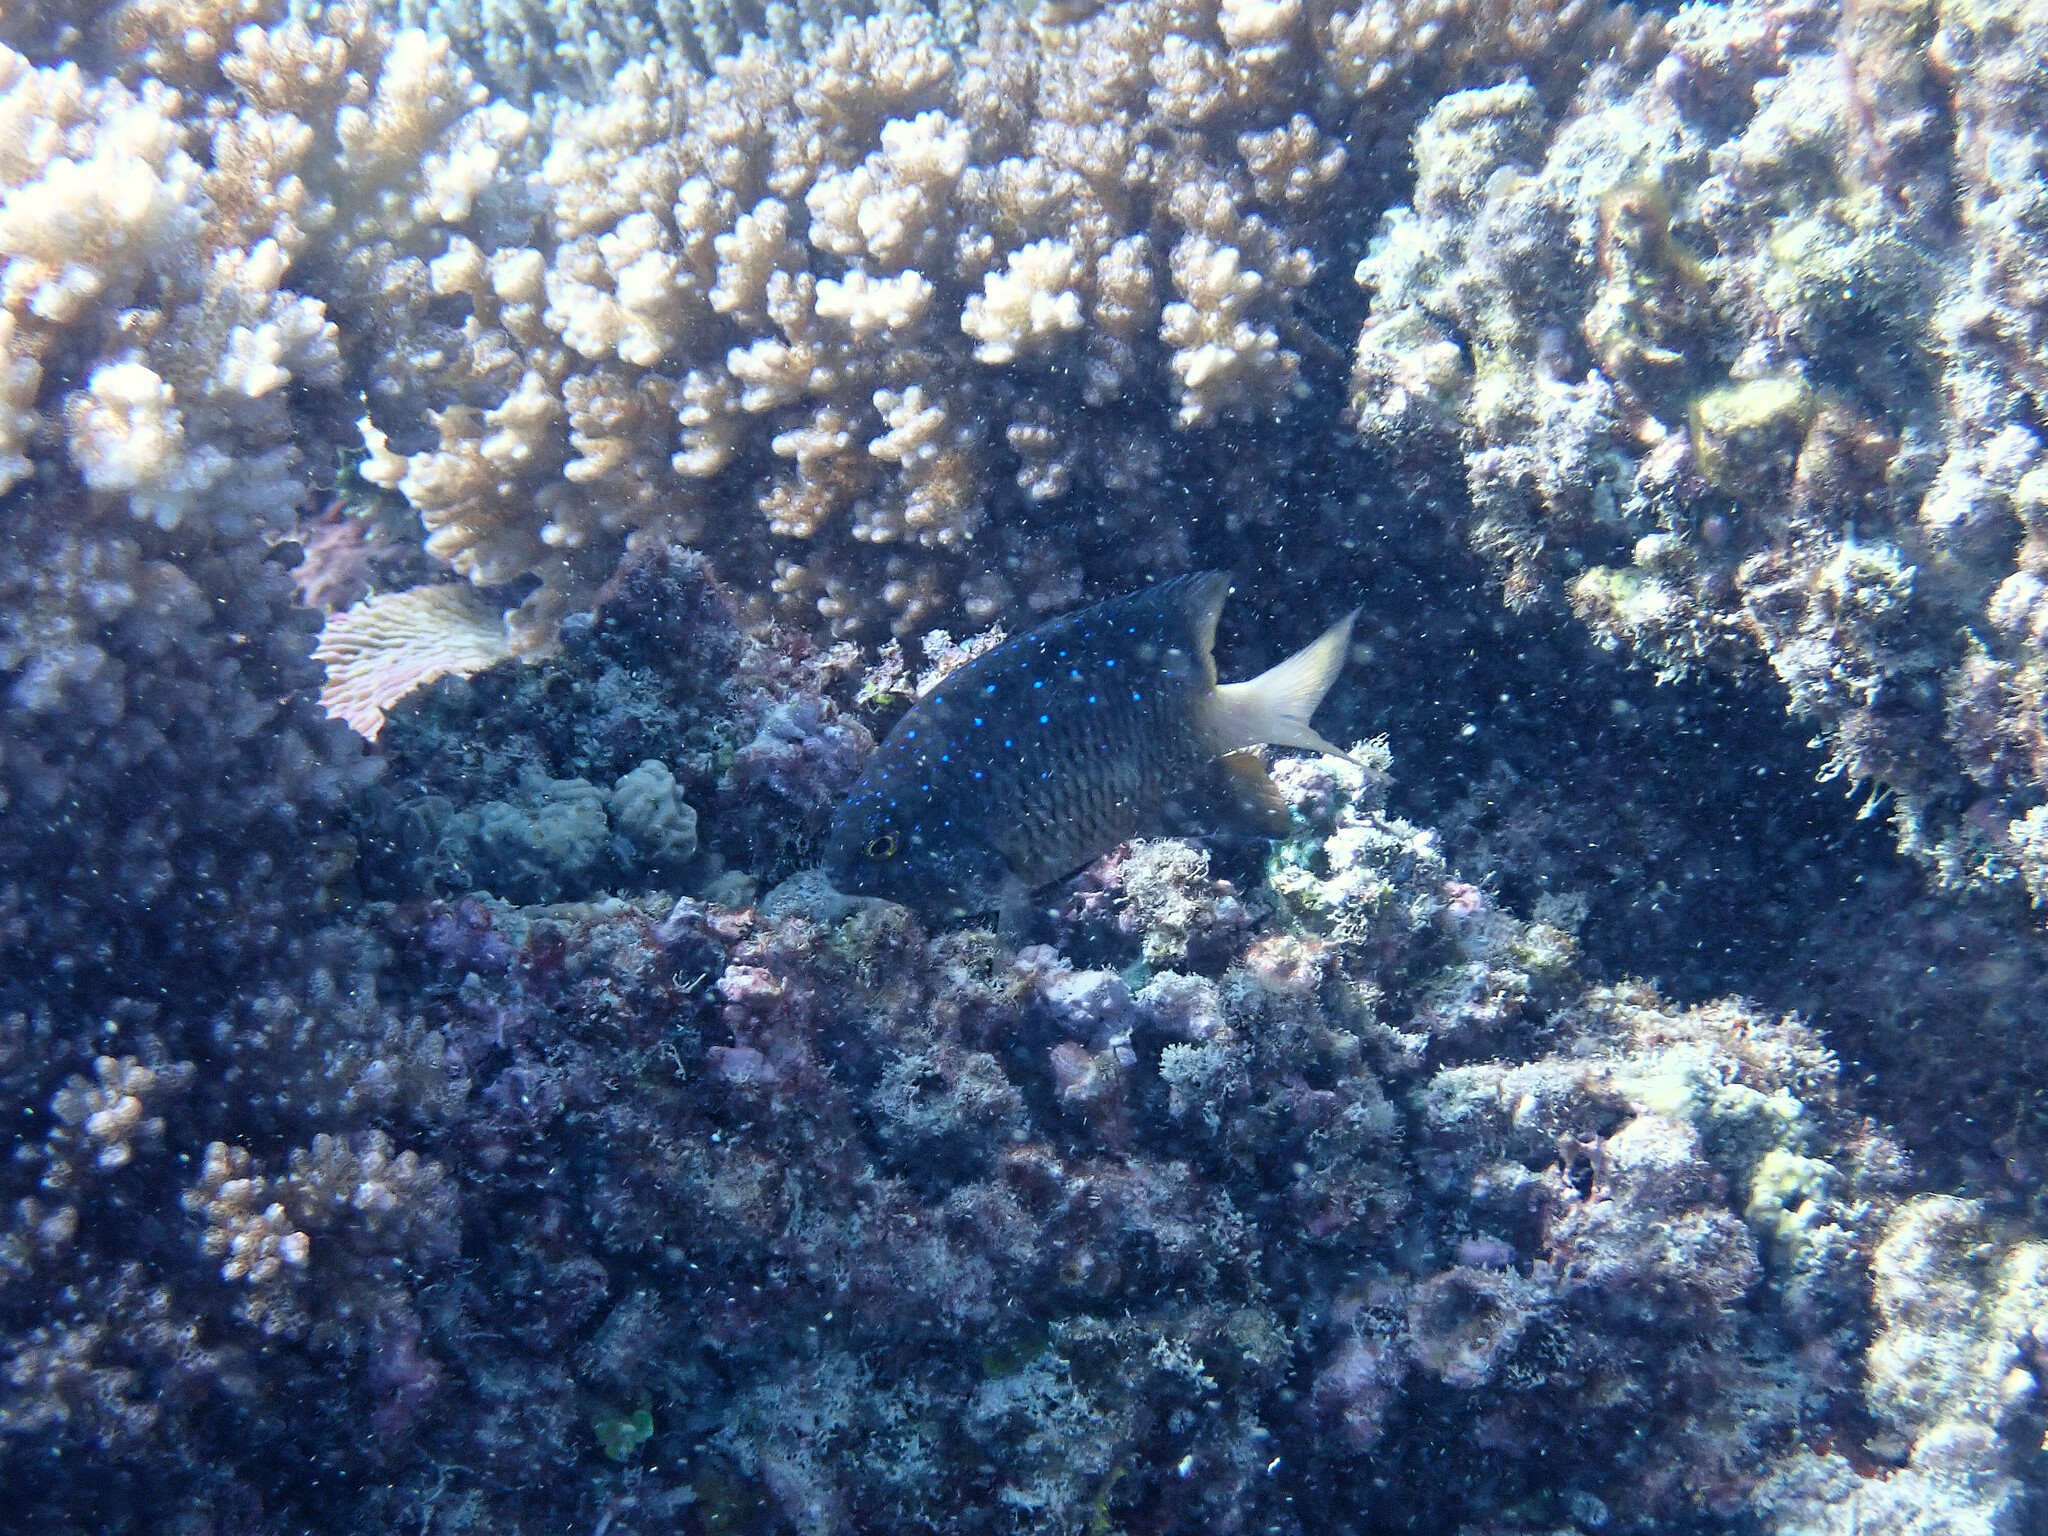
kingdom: Animalia
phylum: Chordata
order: Perciformes
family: Pomacentridae
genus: Plectroglyphidodon
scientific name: Plectroglyphidodon lacrymatus
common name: Jewel damsel
